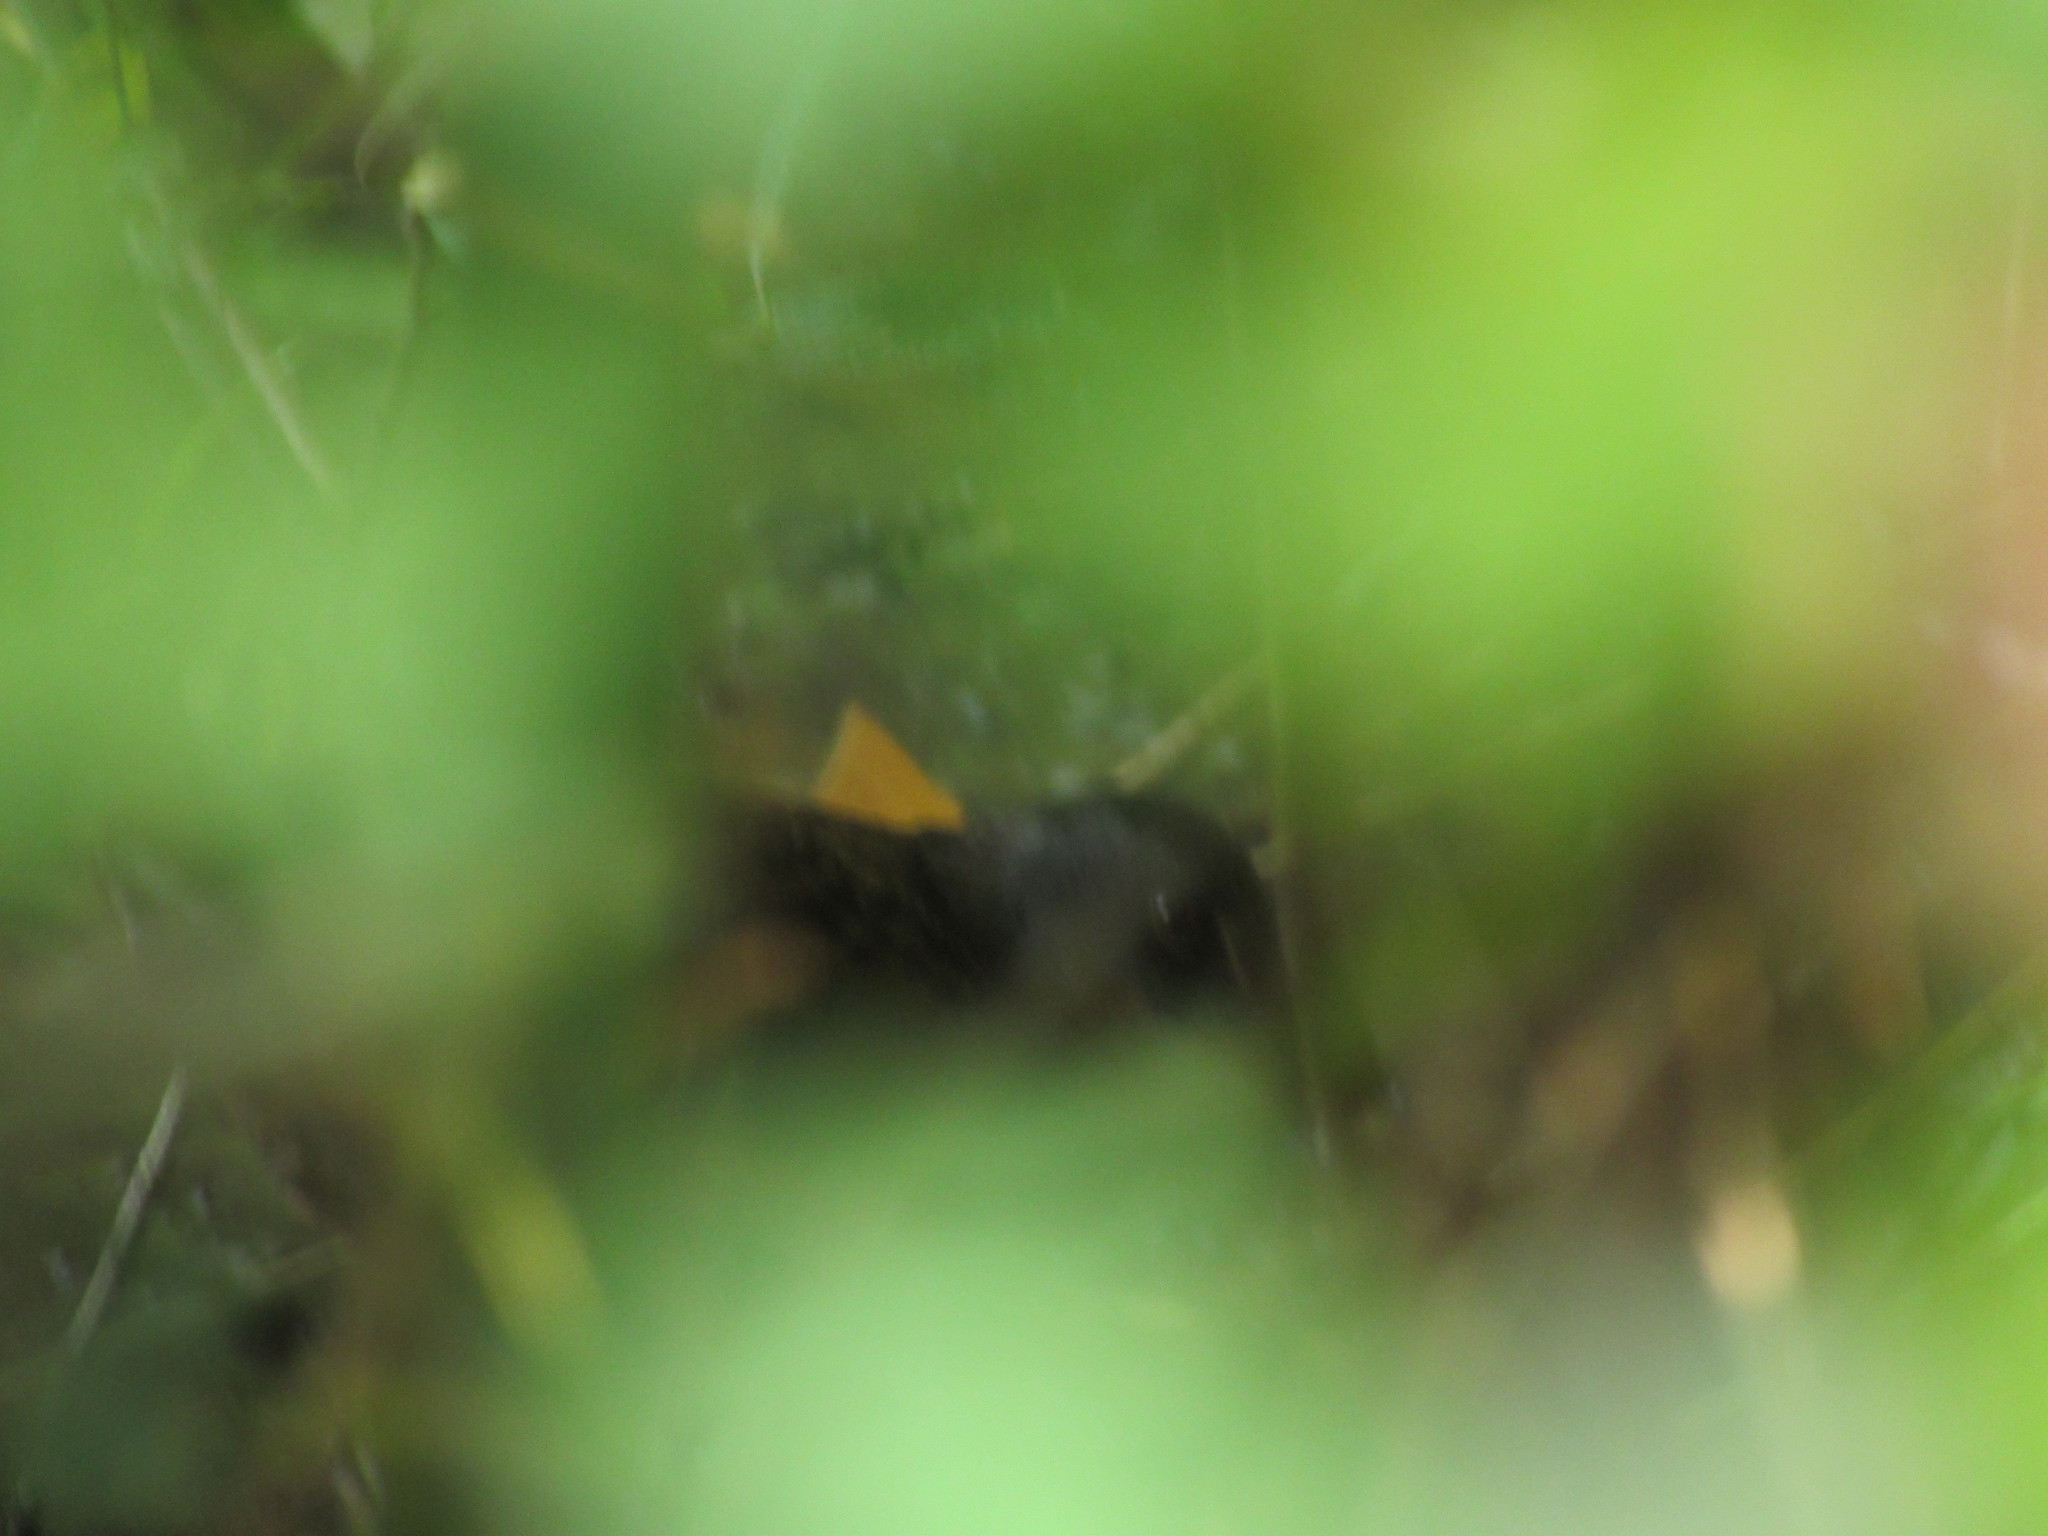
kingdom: Animalia
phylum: Chordata
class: Aves
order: Gruiformes
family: Rallidae
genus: Rallus
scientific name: Rallus limicola
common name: Virginia rail
